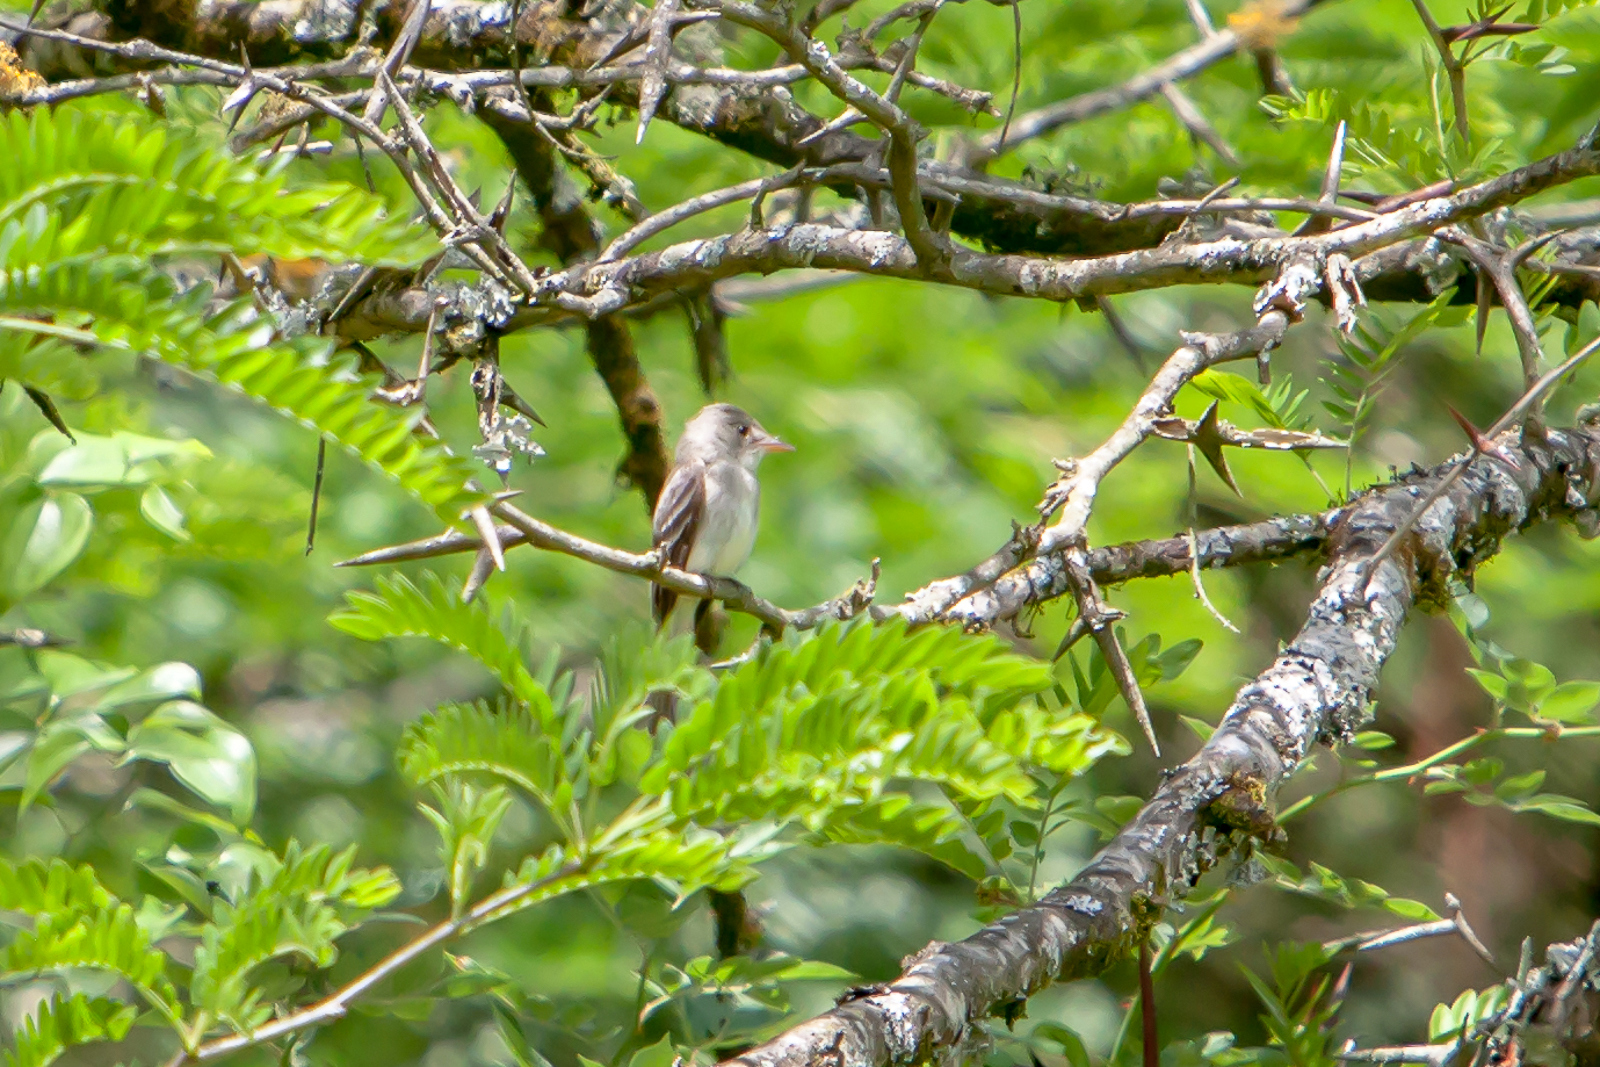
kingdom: Animalia
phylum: Chordata
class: Aves
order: Passeriformes
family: Tyrannidae
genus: Contopus
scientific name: Contopus virens
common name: Eastern wood-pewee
